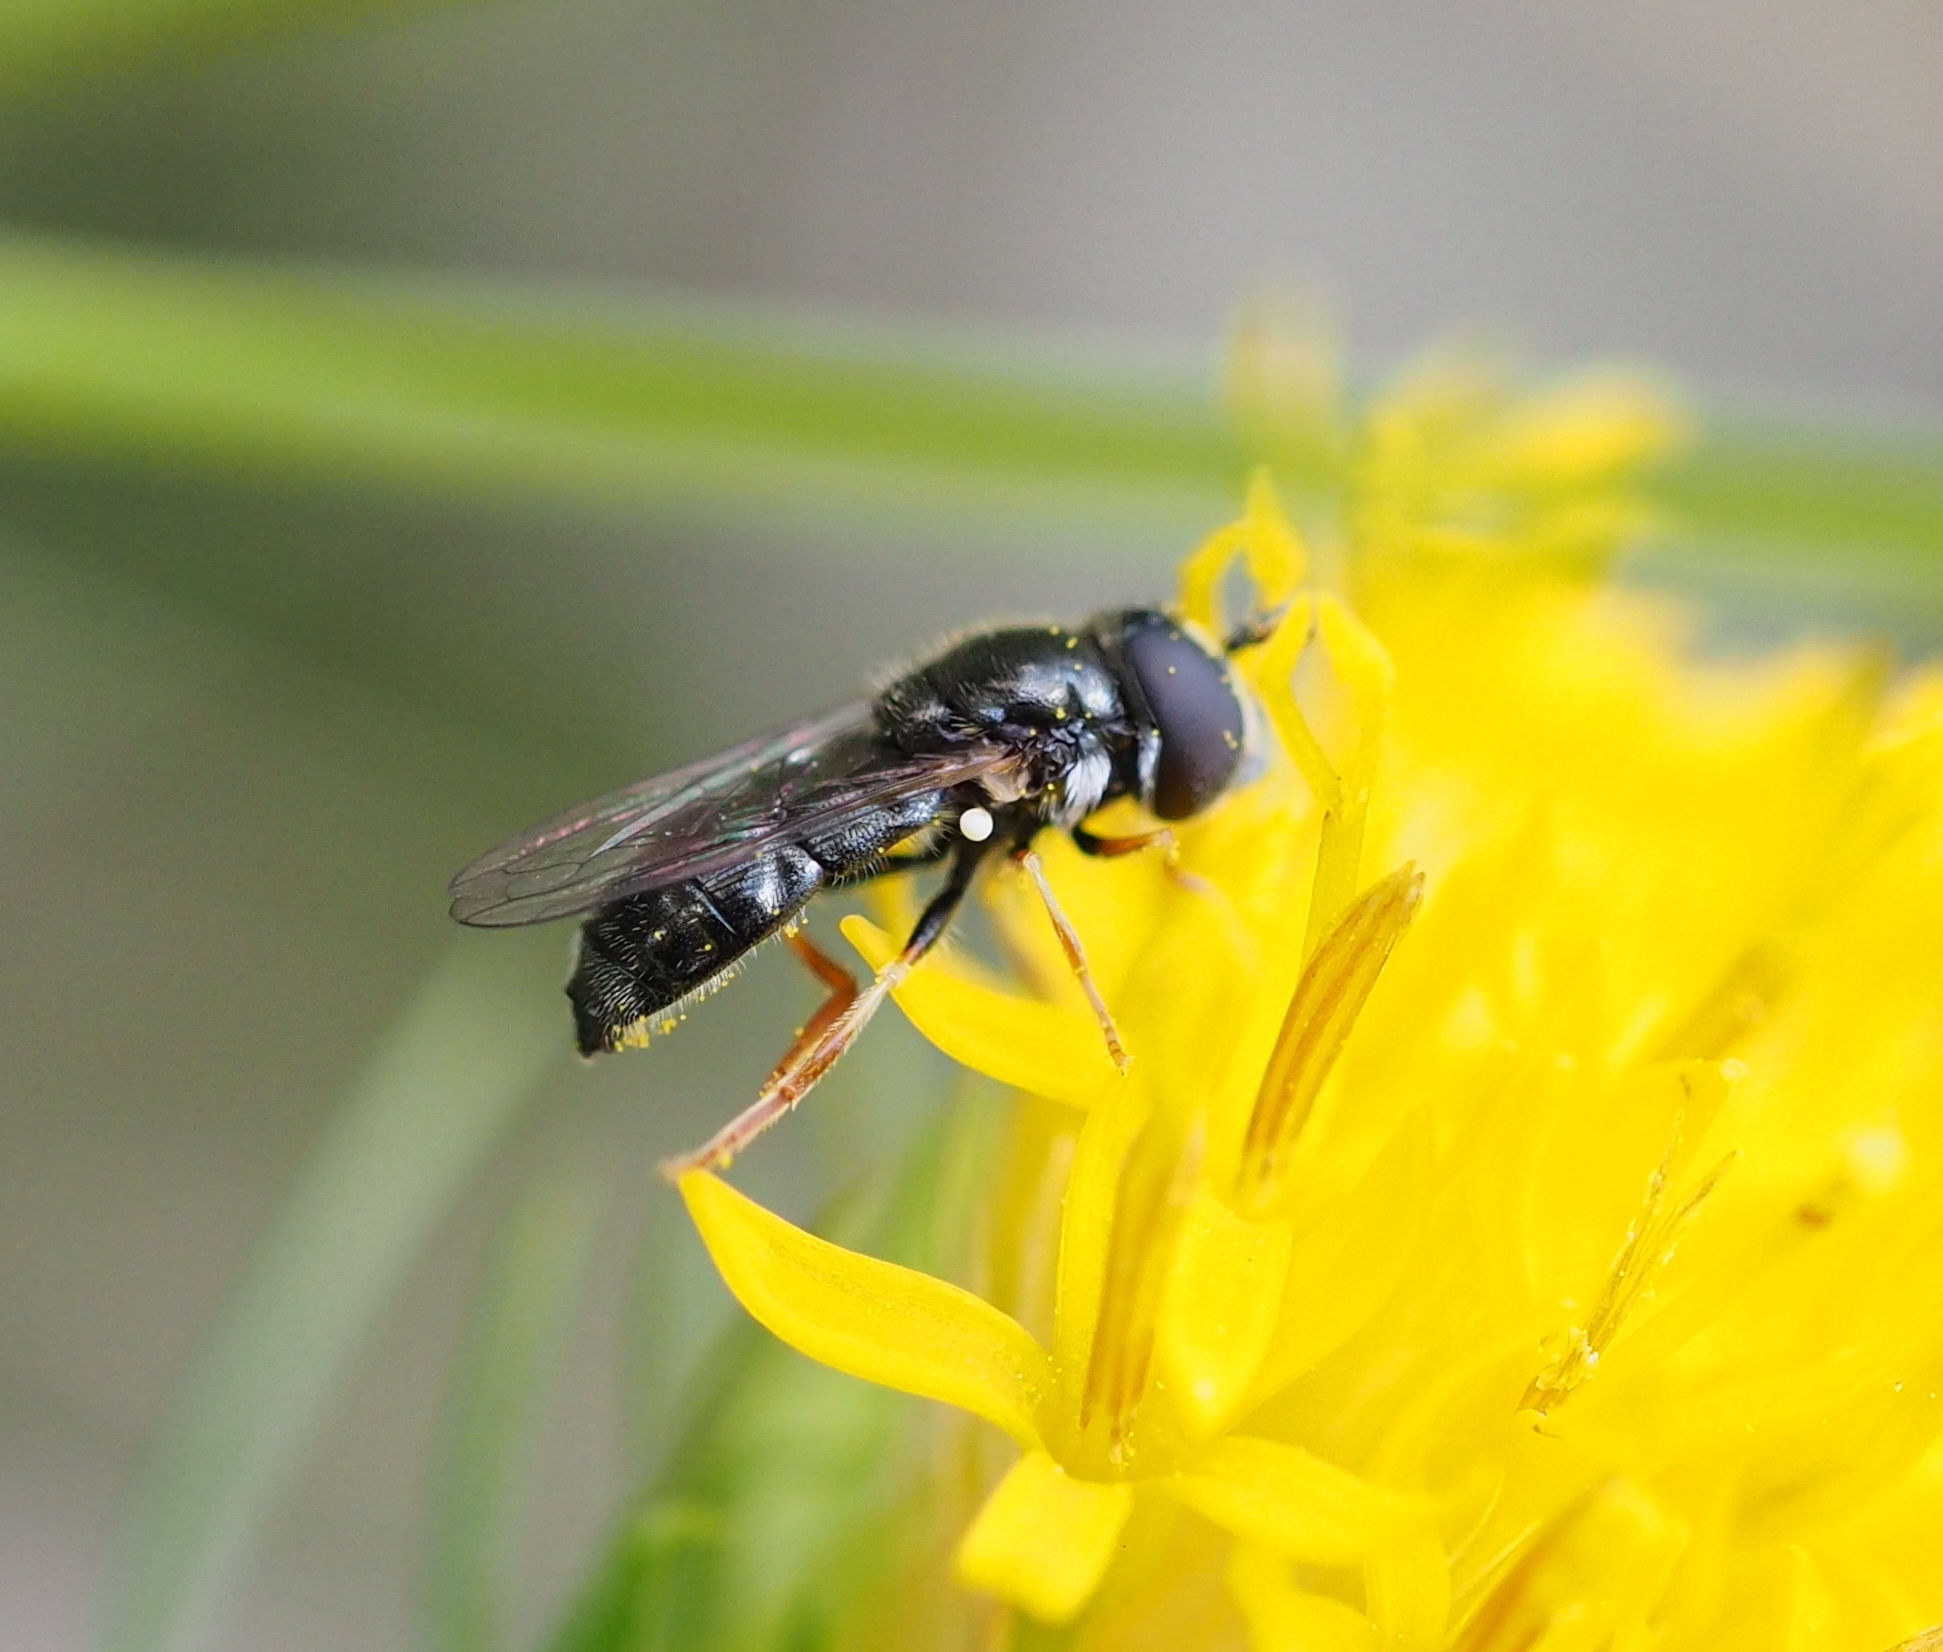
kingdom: Animalia
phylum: Arthropoda
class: Insecta
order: Diptera
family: Syrphidae
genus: Paragus
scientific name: Paragus haemorrhous
